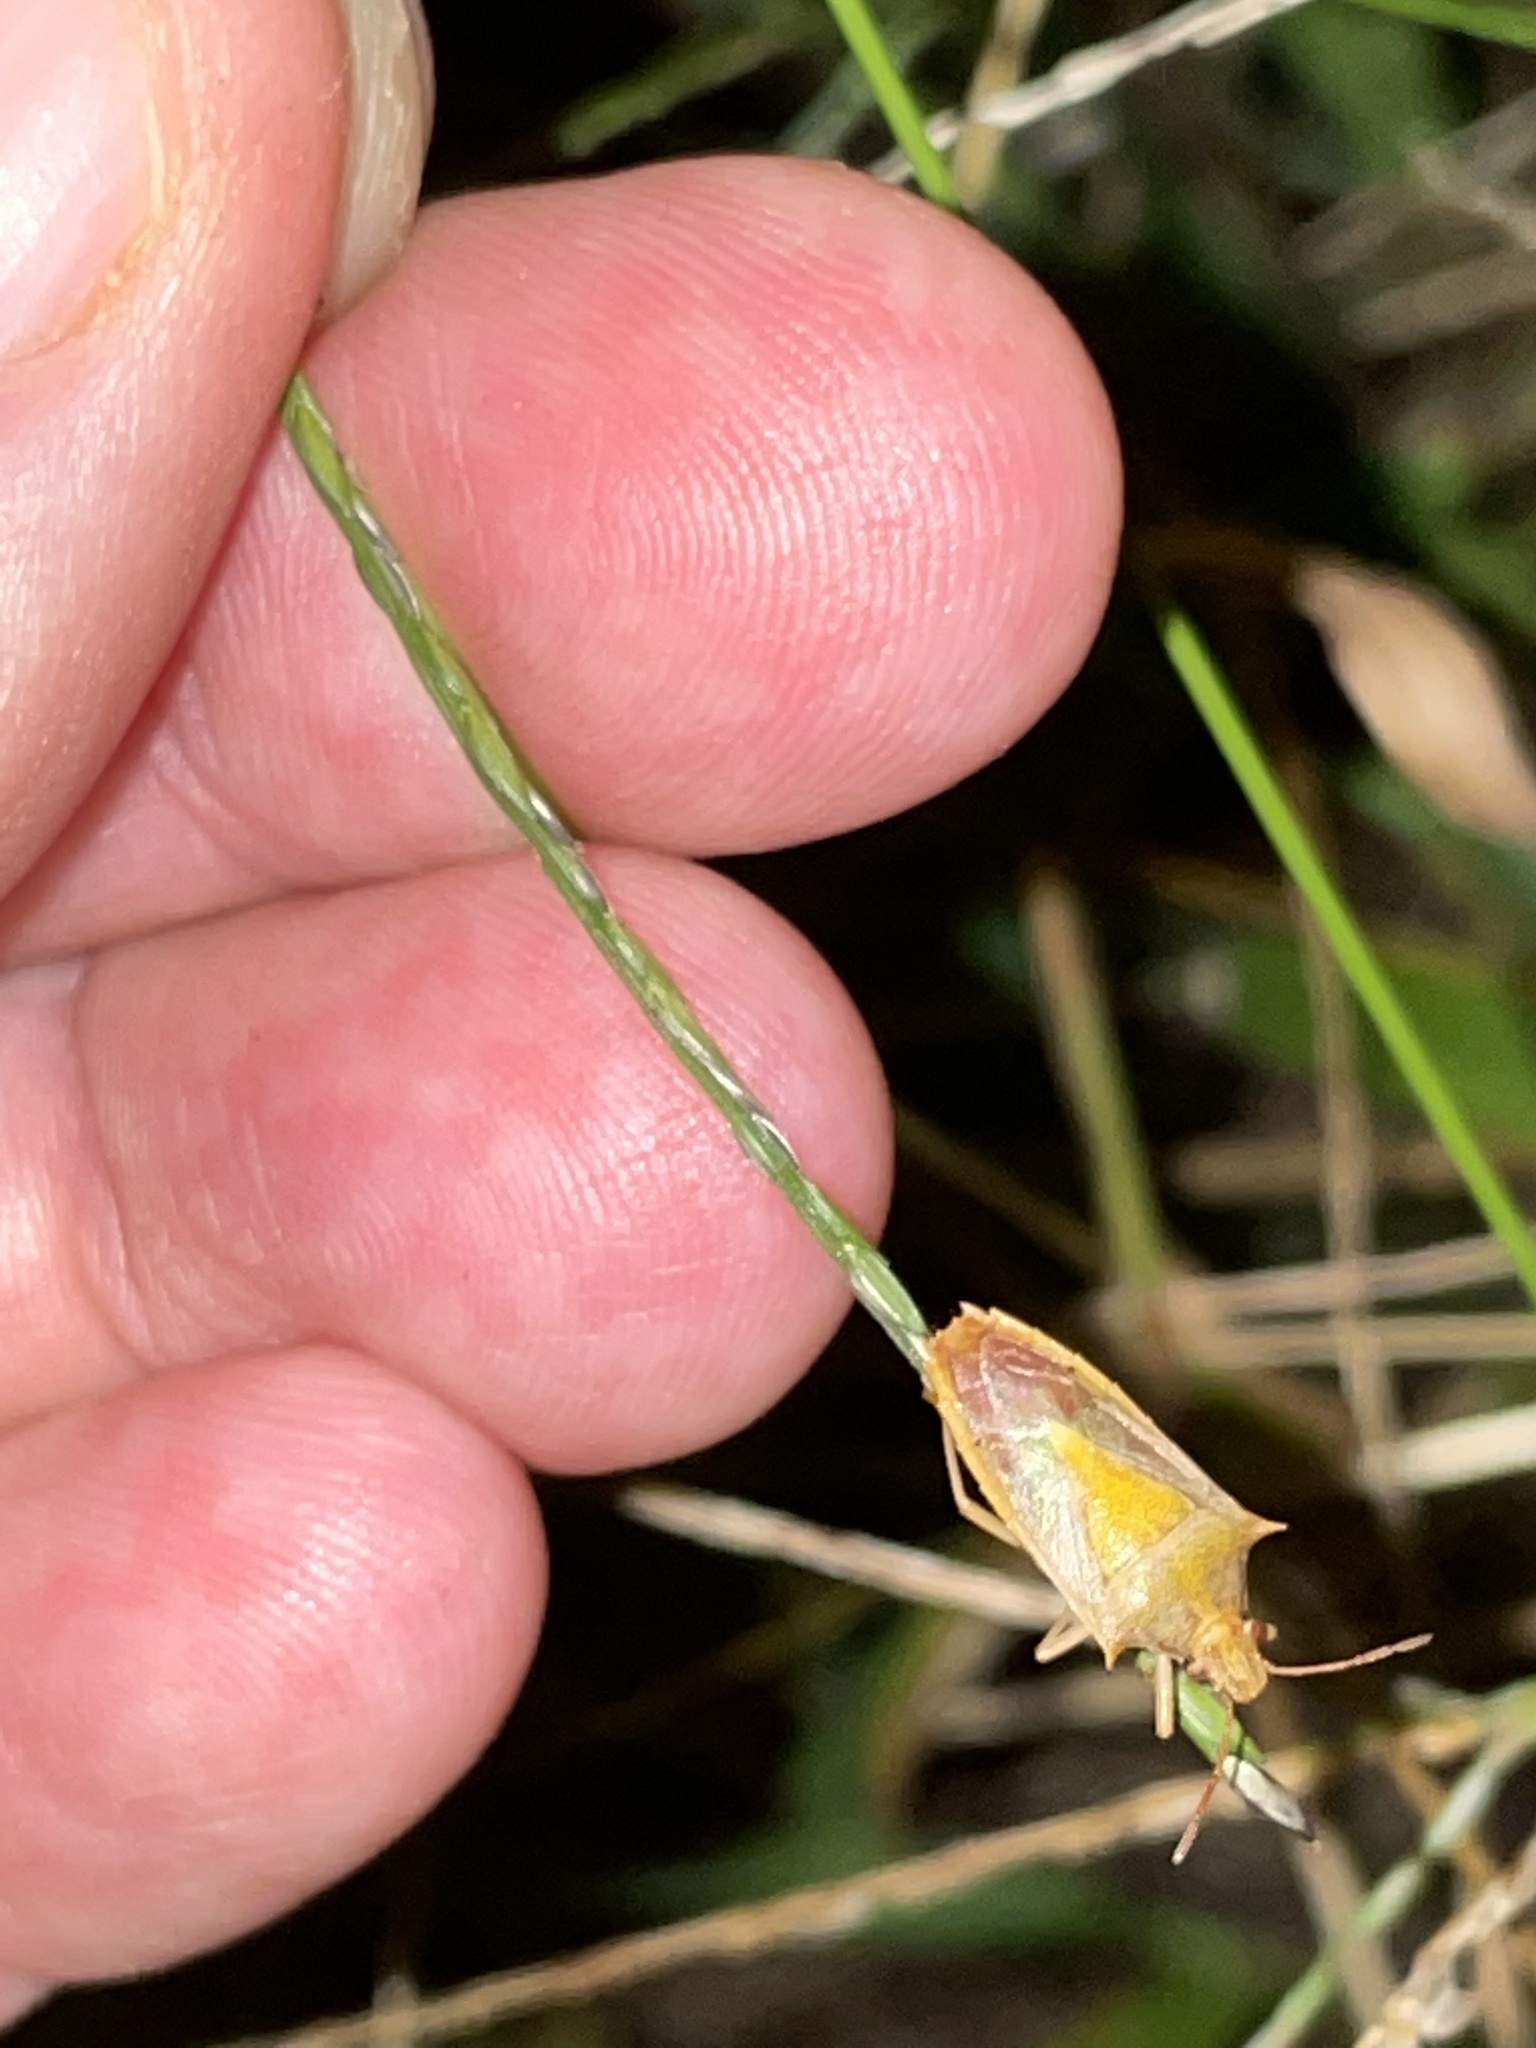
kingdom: Animalia
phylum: Arthropoda
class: Insecta
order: Hemiptera
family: Pentatomidae
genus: Oebalus
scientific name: Oebalus pugnax
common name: Rice stink bug
